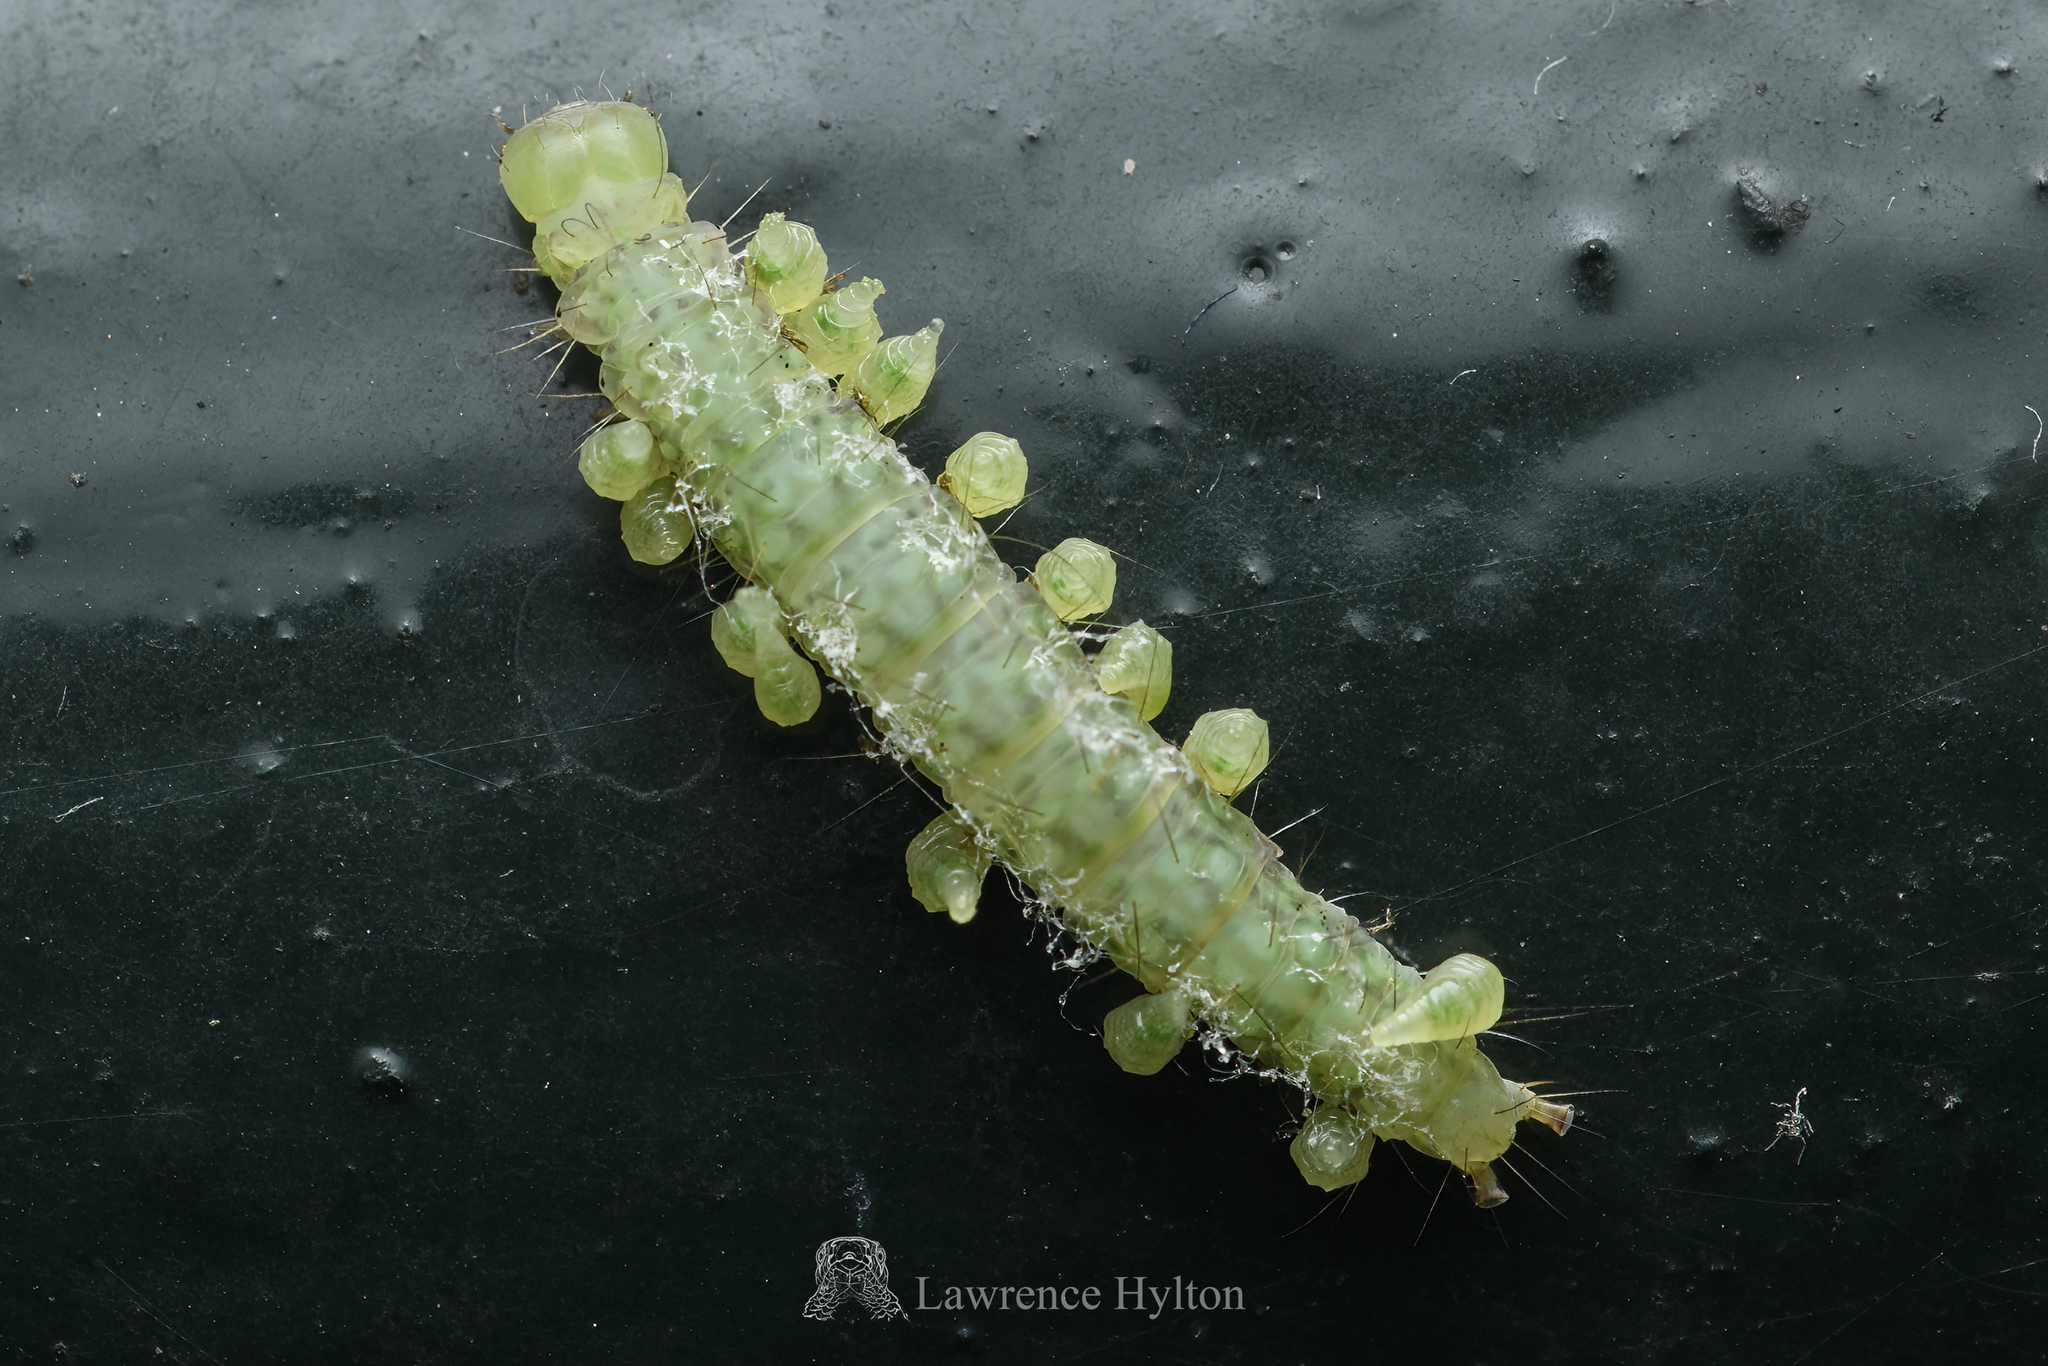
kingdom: Animalia
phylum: Arthropoda
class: Insecta
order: Lepidoptera
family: Immidae
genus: Imma
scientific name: Imma mylias
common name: Moth
